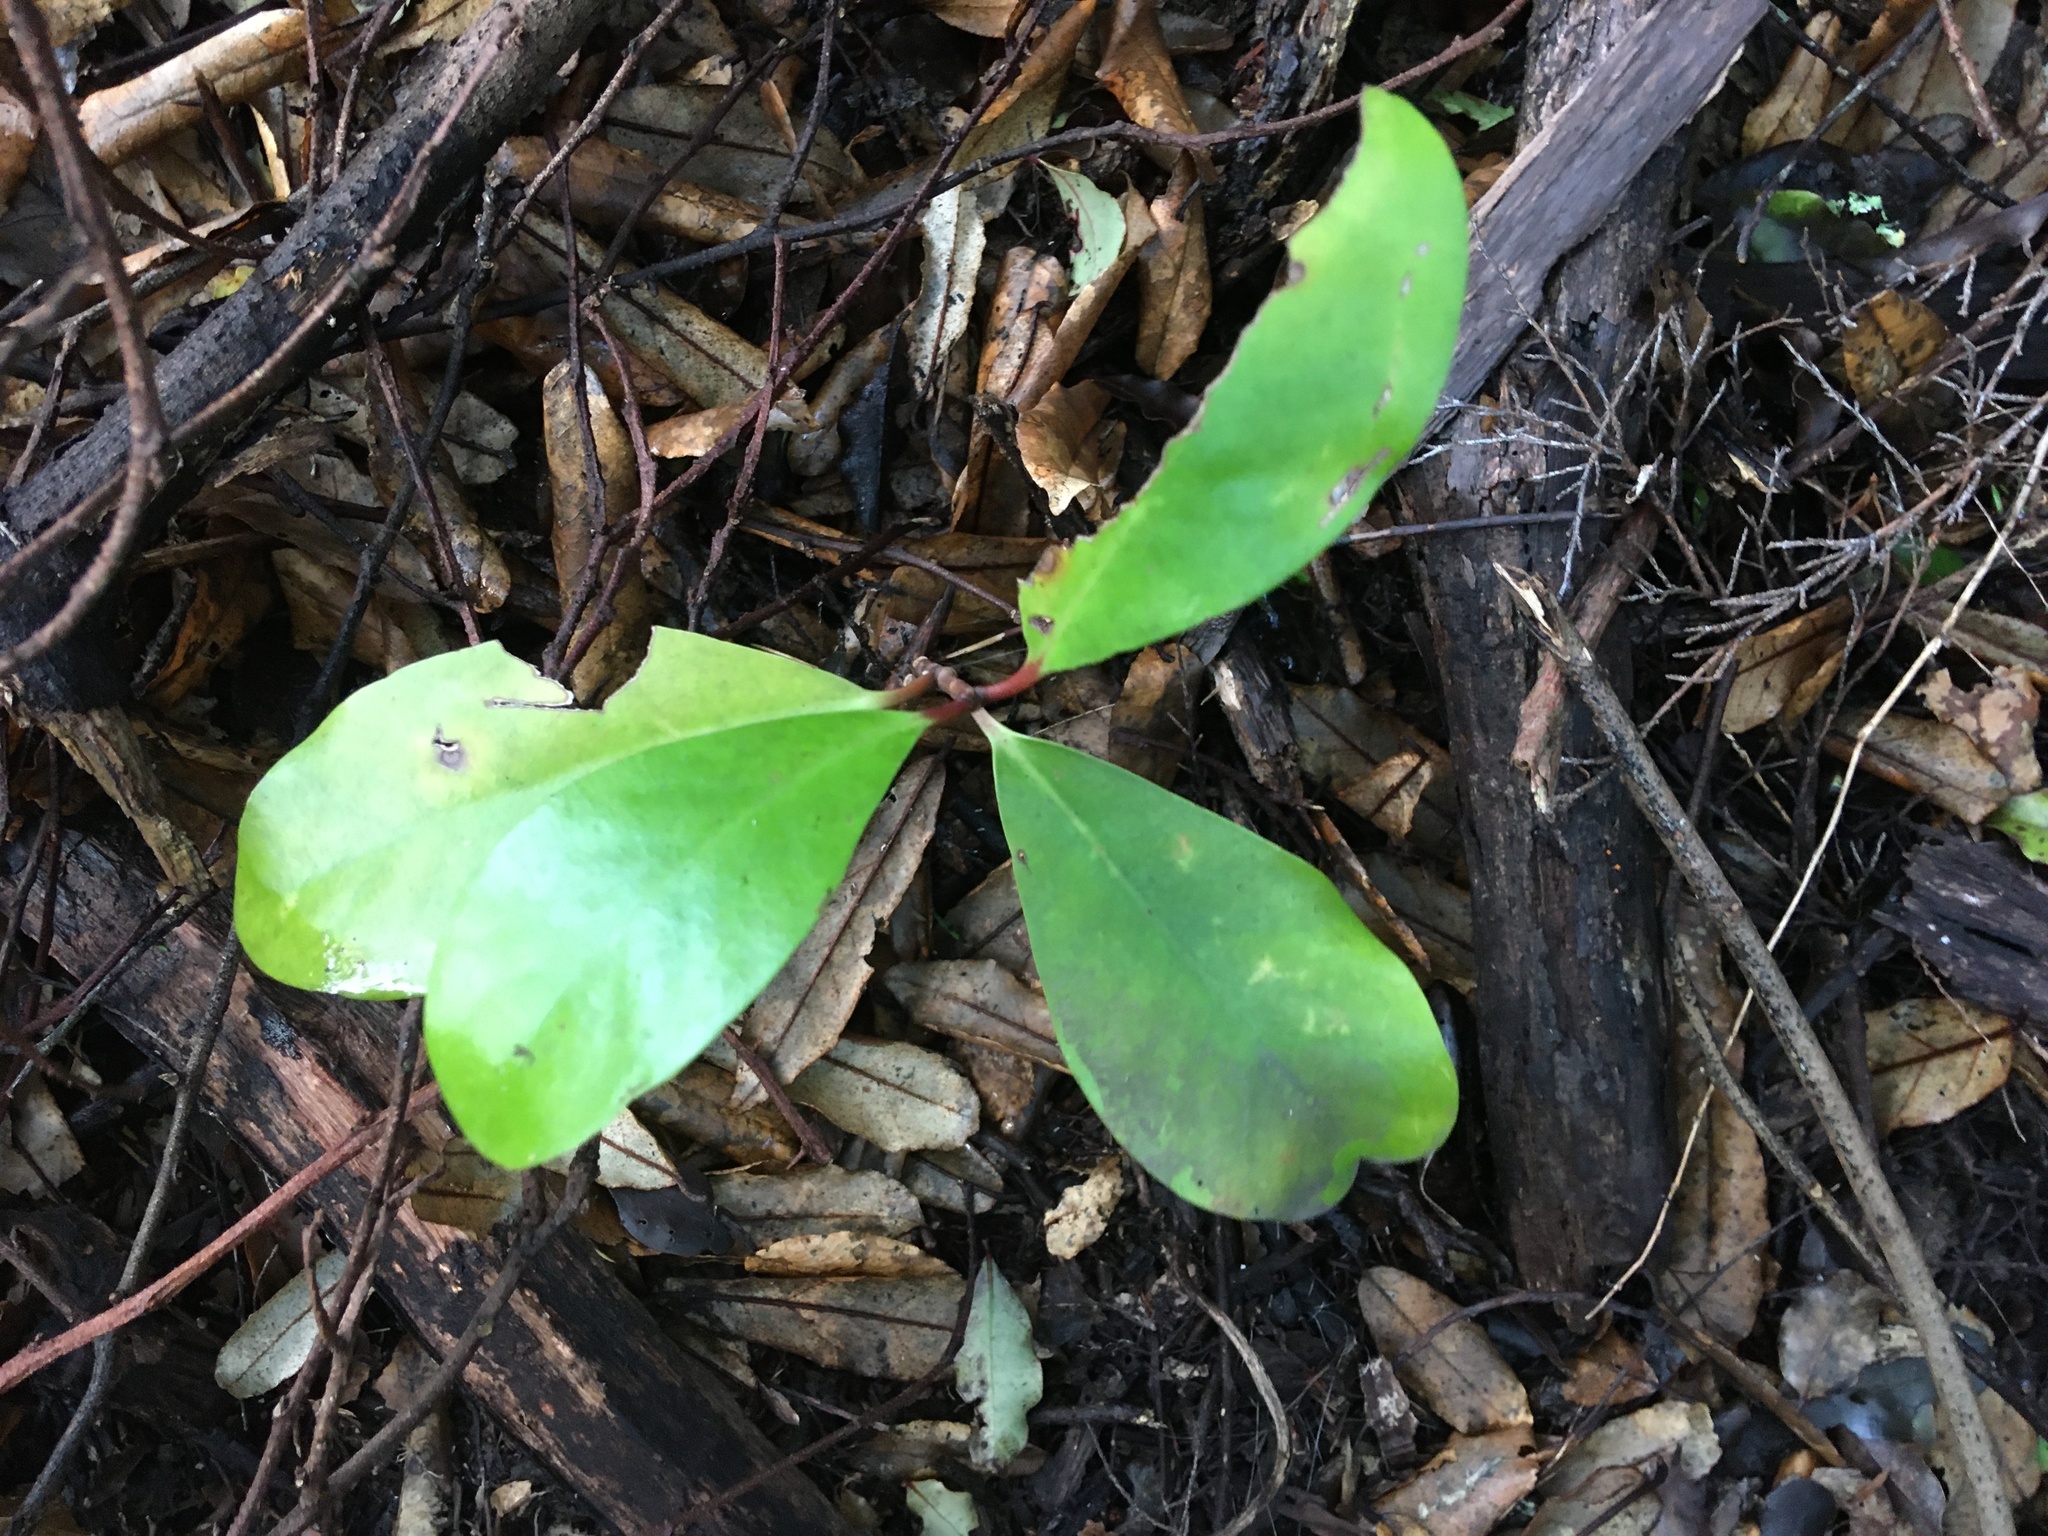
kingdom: Plantae
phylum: Tracheophyta
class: Magnoliopsida
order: Cucurbitales
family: Corynocarpaceae
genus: Corynocarpus
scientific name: Corynocarpus laevigatus
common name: New zealand laurel
